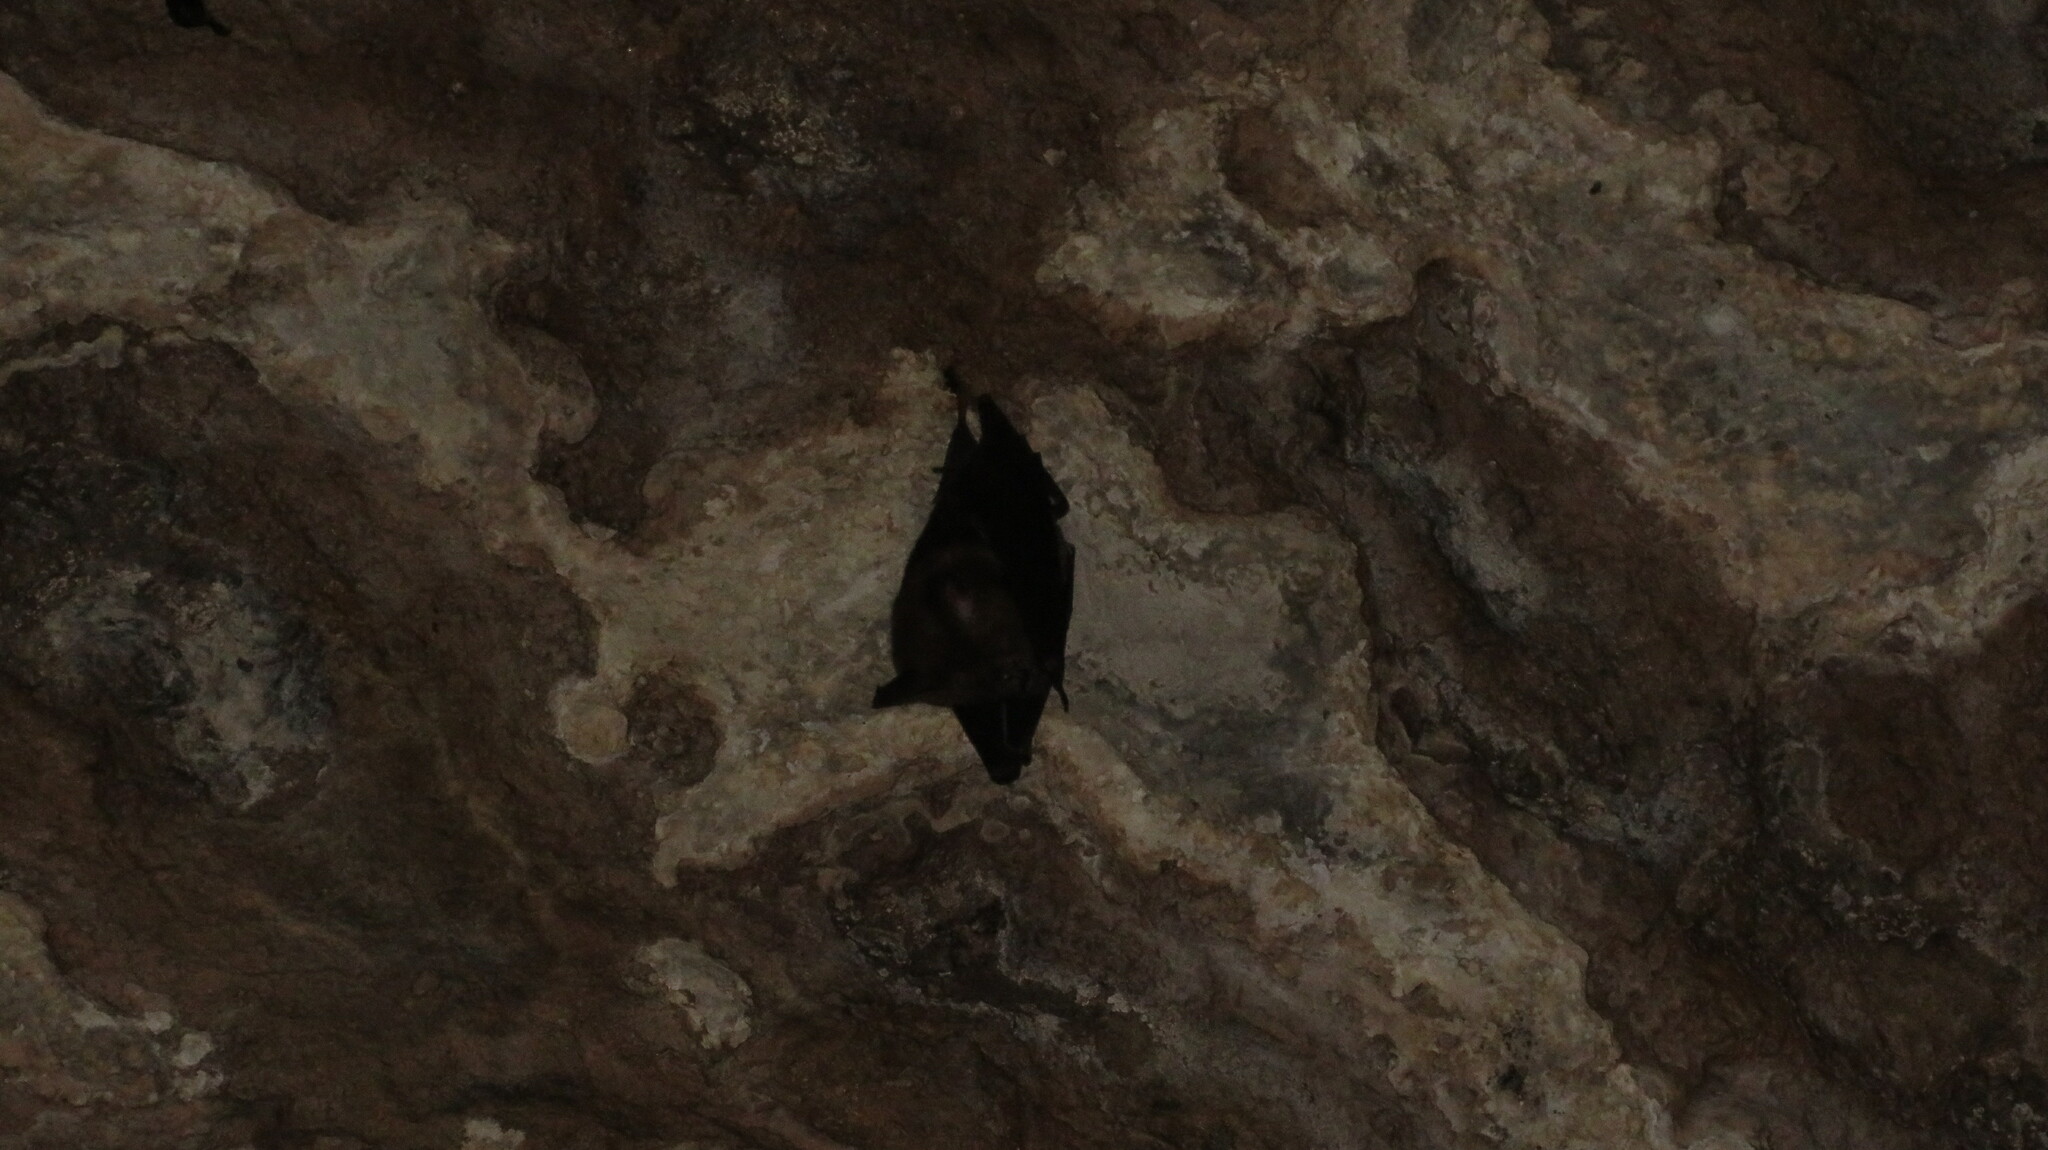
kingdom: Animalia
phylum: Chordata
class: Mammalia
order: Chiroptera
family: Hipposideridae
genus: Hipposideros
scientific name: Hipposideros armiger
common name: Great leaf-nosed bat
